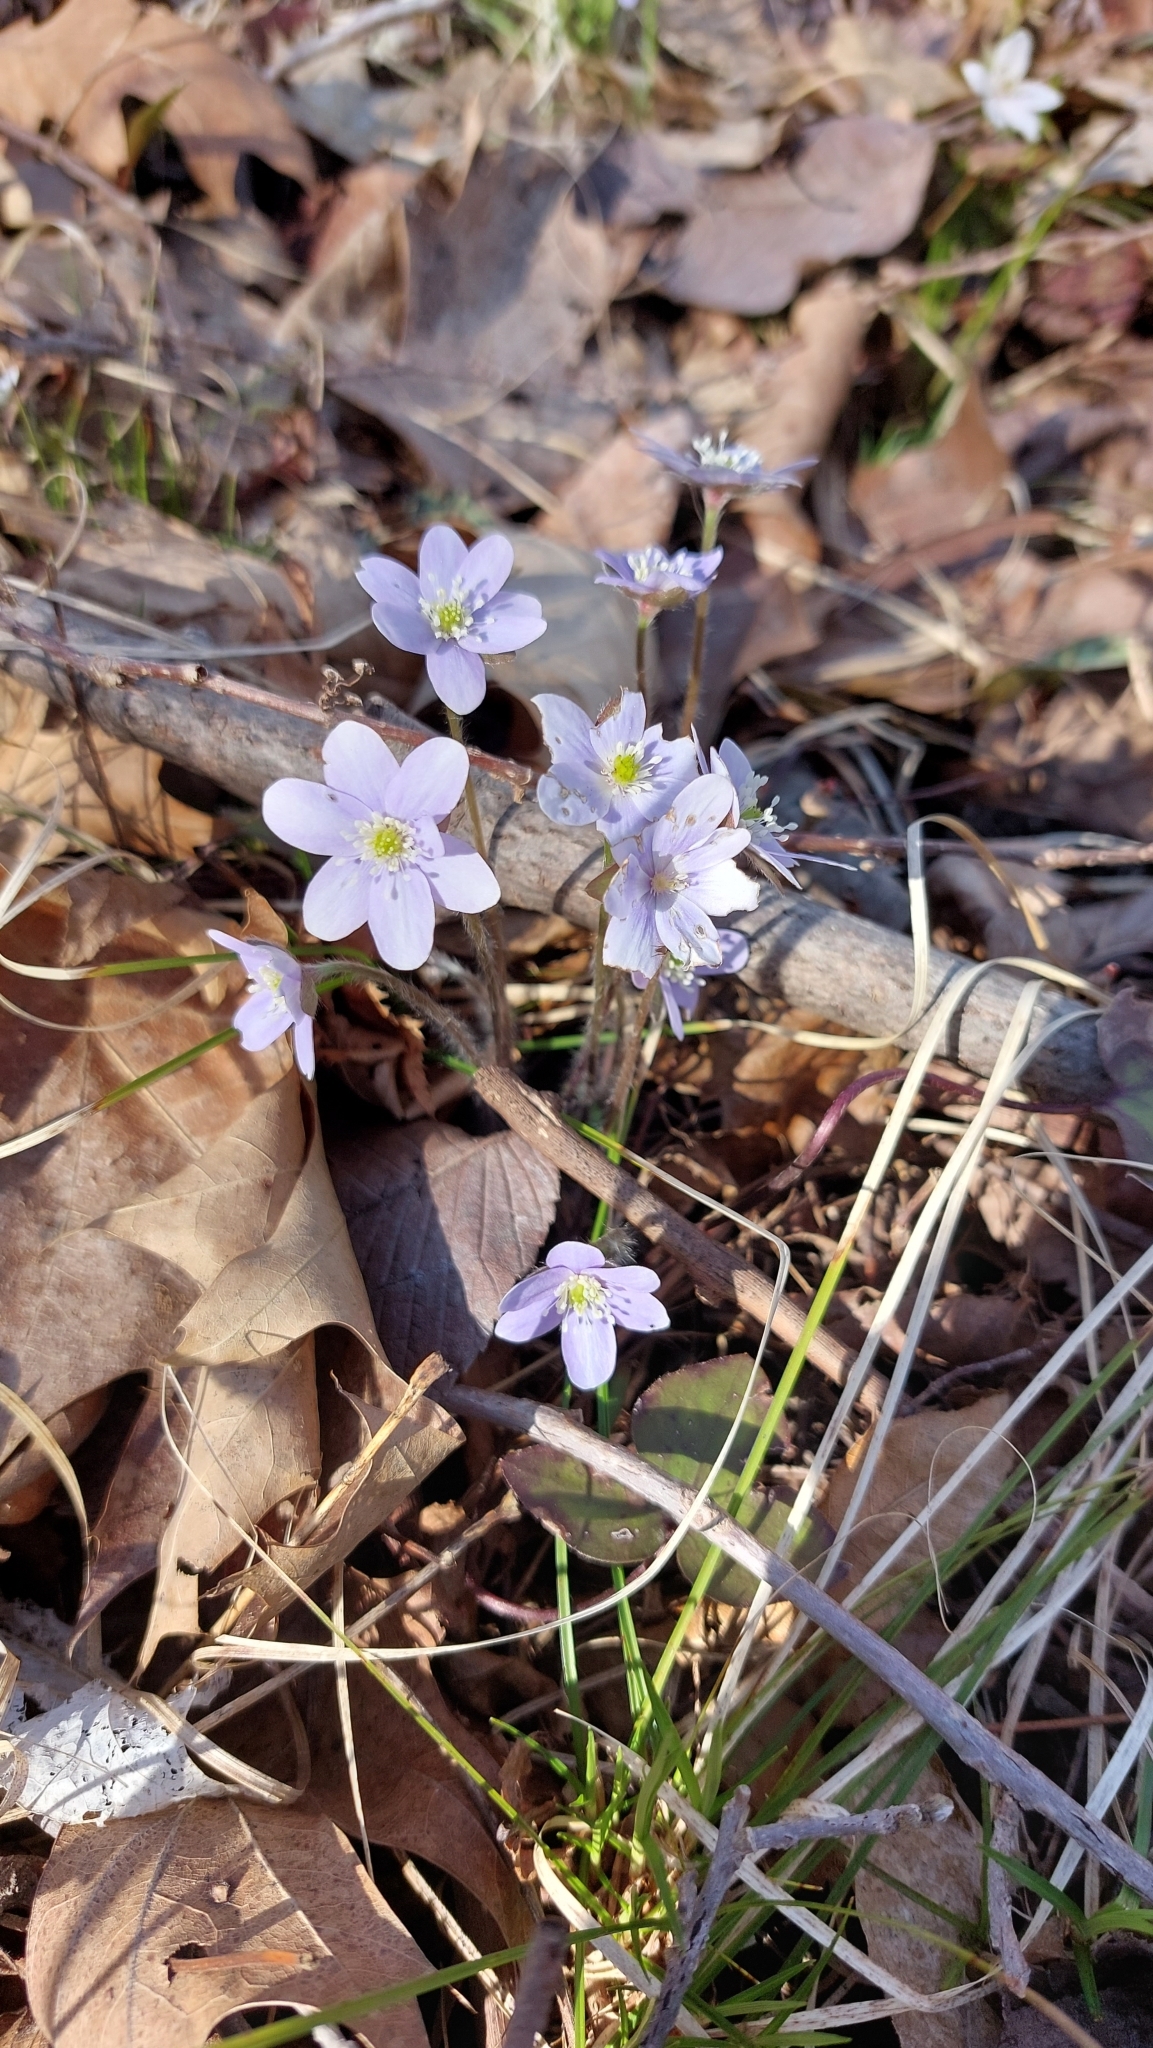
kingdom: Plantae
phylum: Tracheophyta
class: Magnoliopsida
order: Ranunculales
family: Ranunculaceae
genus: Hepatica
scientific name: Hepatica acutiloba
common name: Sharp-lobed hepatica
